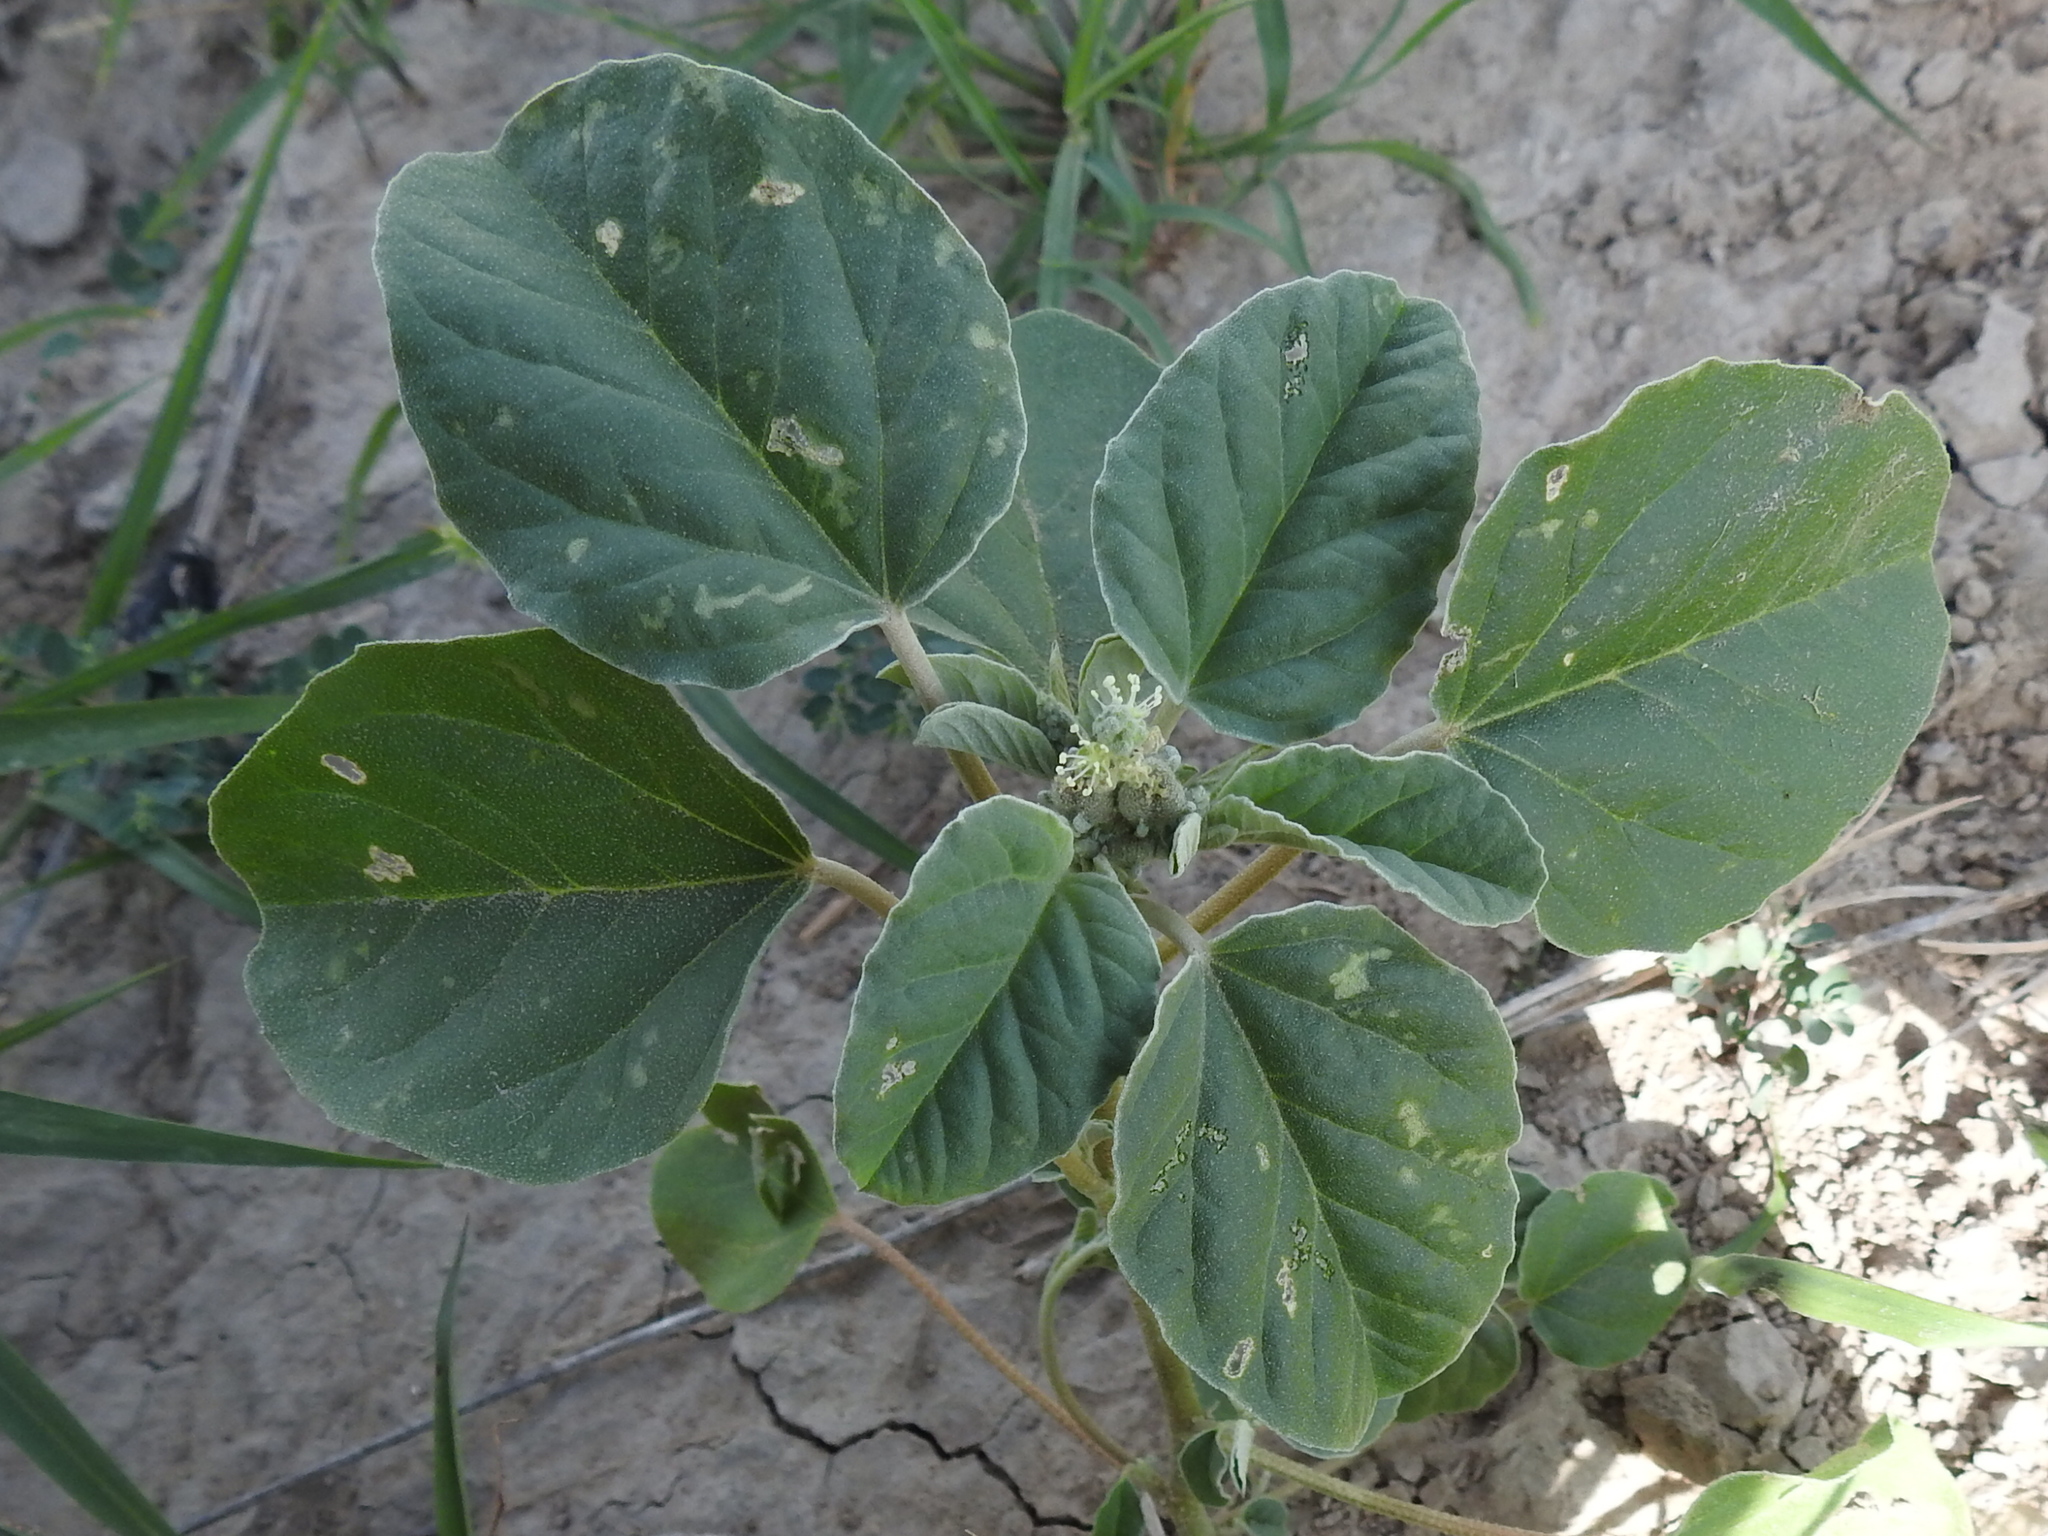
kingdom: Plantae
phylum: Tracheophyta
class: Magnoliopsida
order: Malpighiales
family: Euphorbiaceae
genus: Croton
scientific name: Croton leucophyllus
